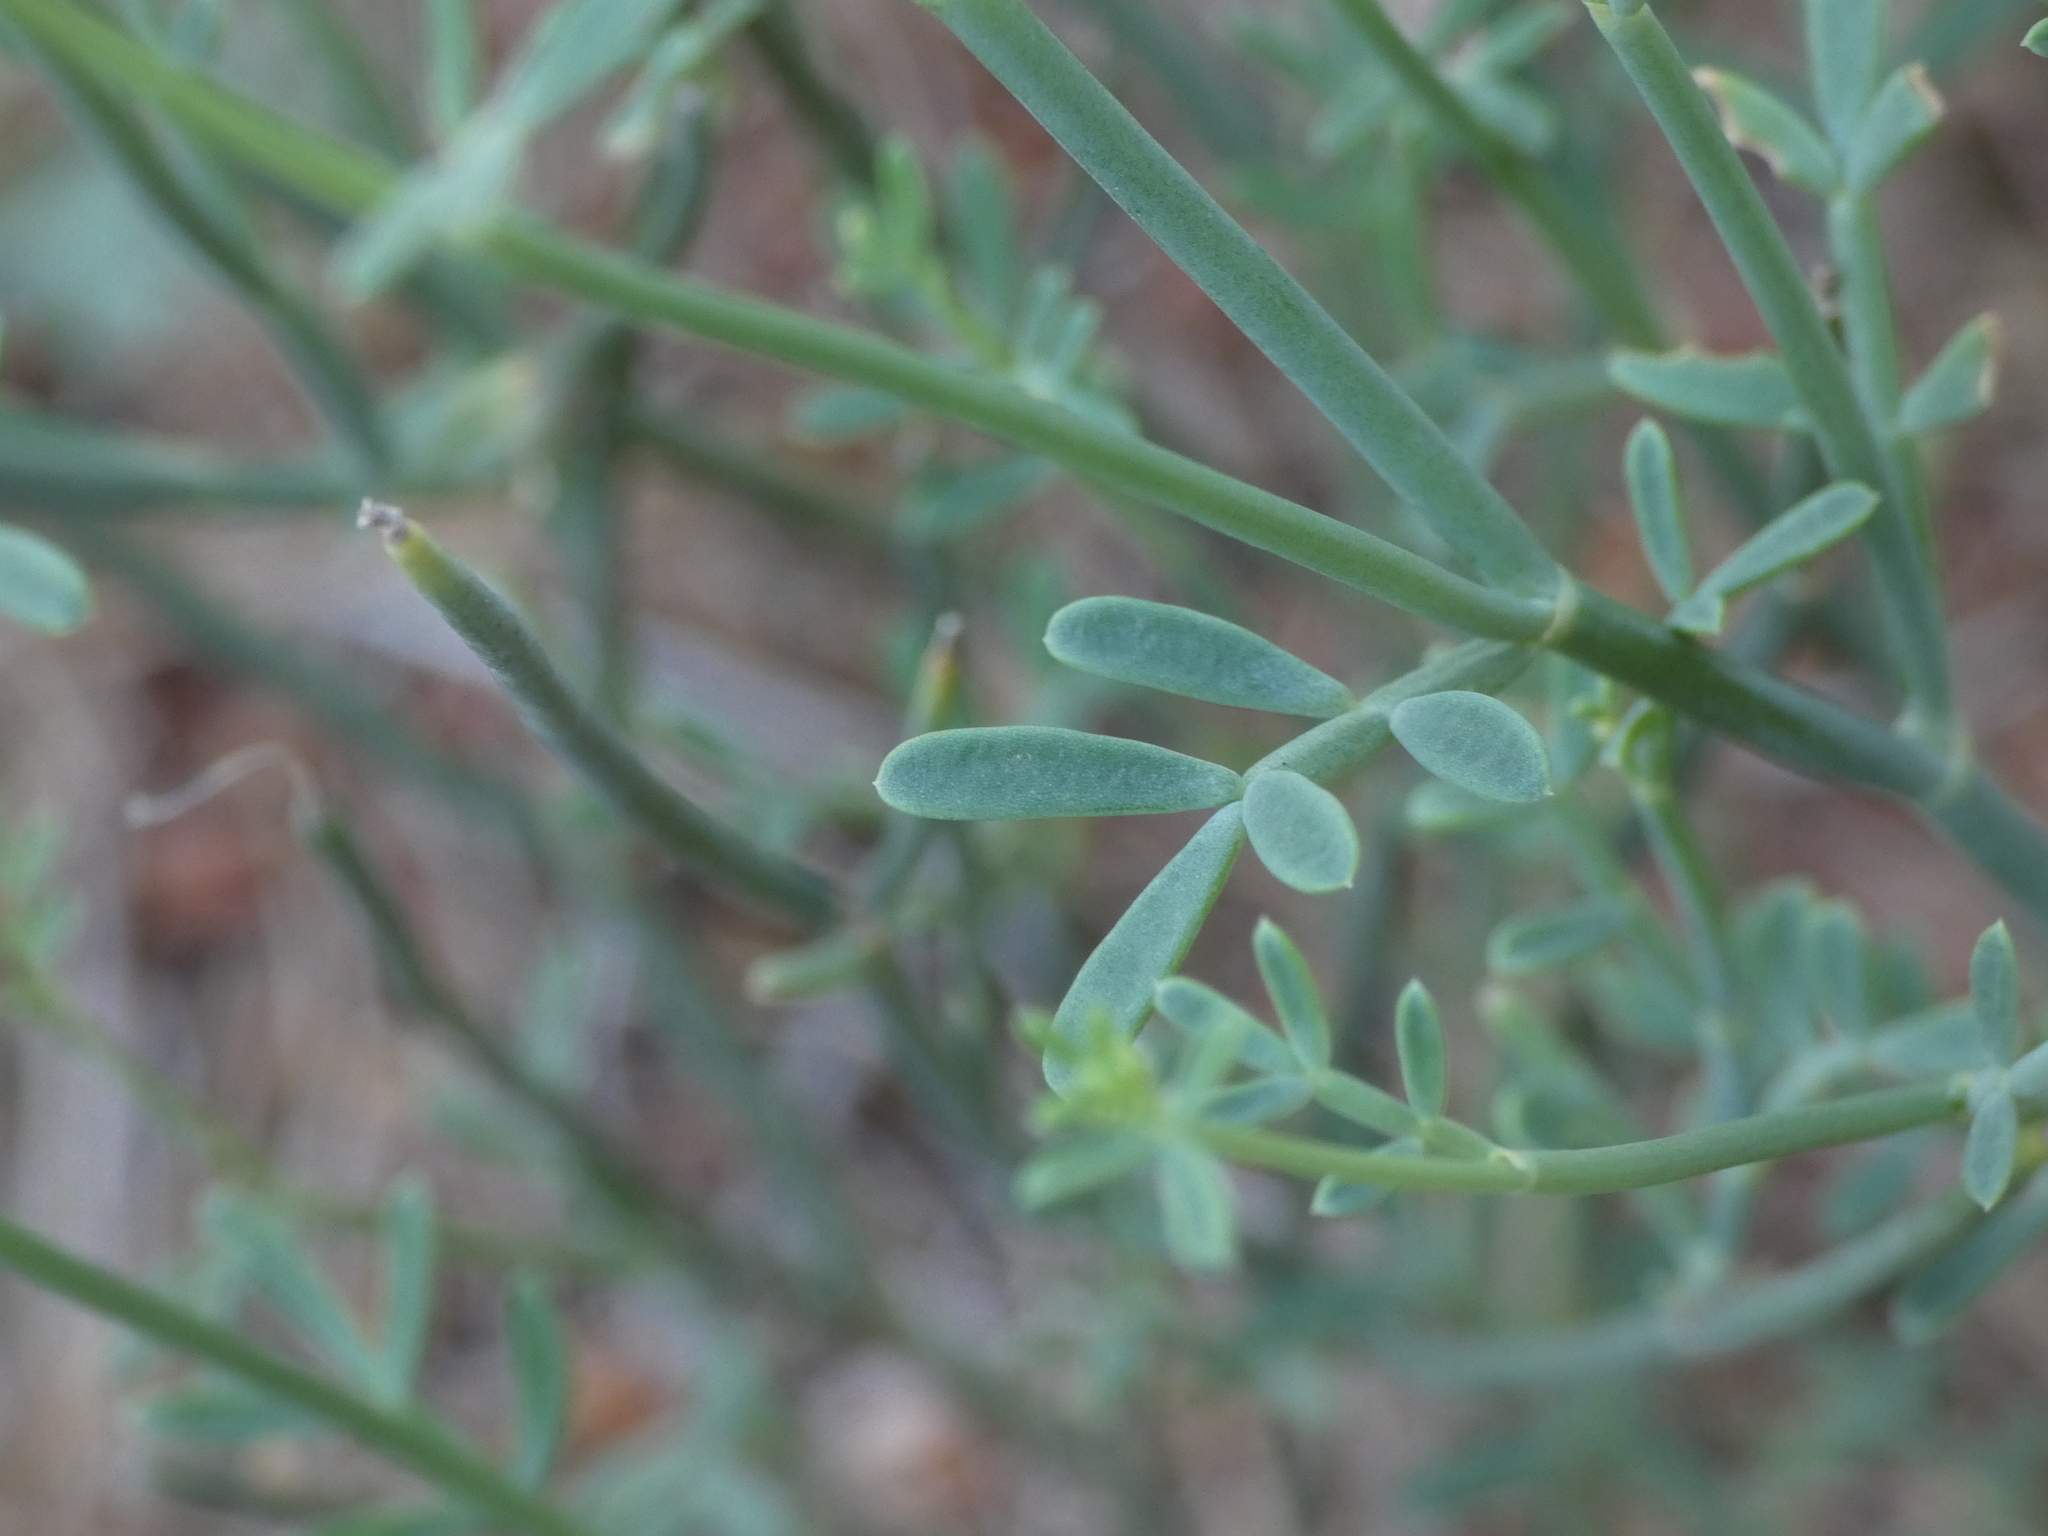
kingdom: Plantae
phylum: Tracheophyta
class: Magnoliopsida
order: Fabales
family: Fabaceae
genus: Coronilla
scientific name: Coronilla juncea
